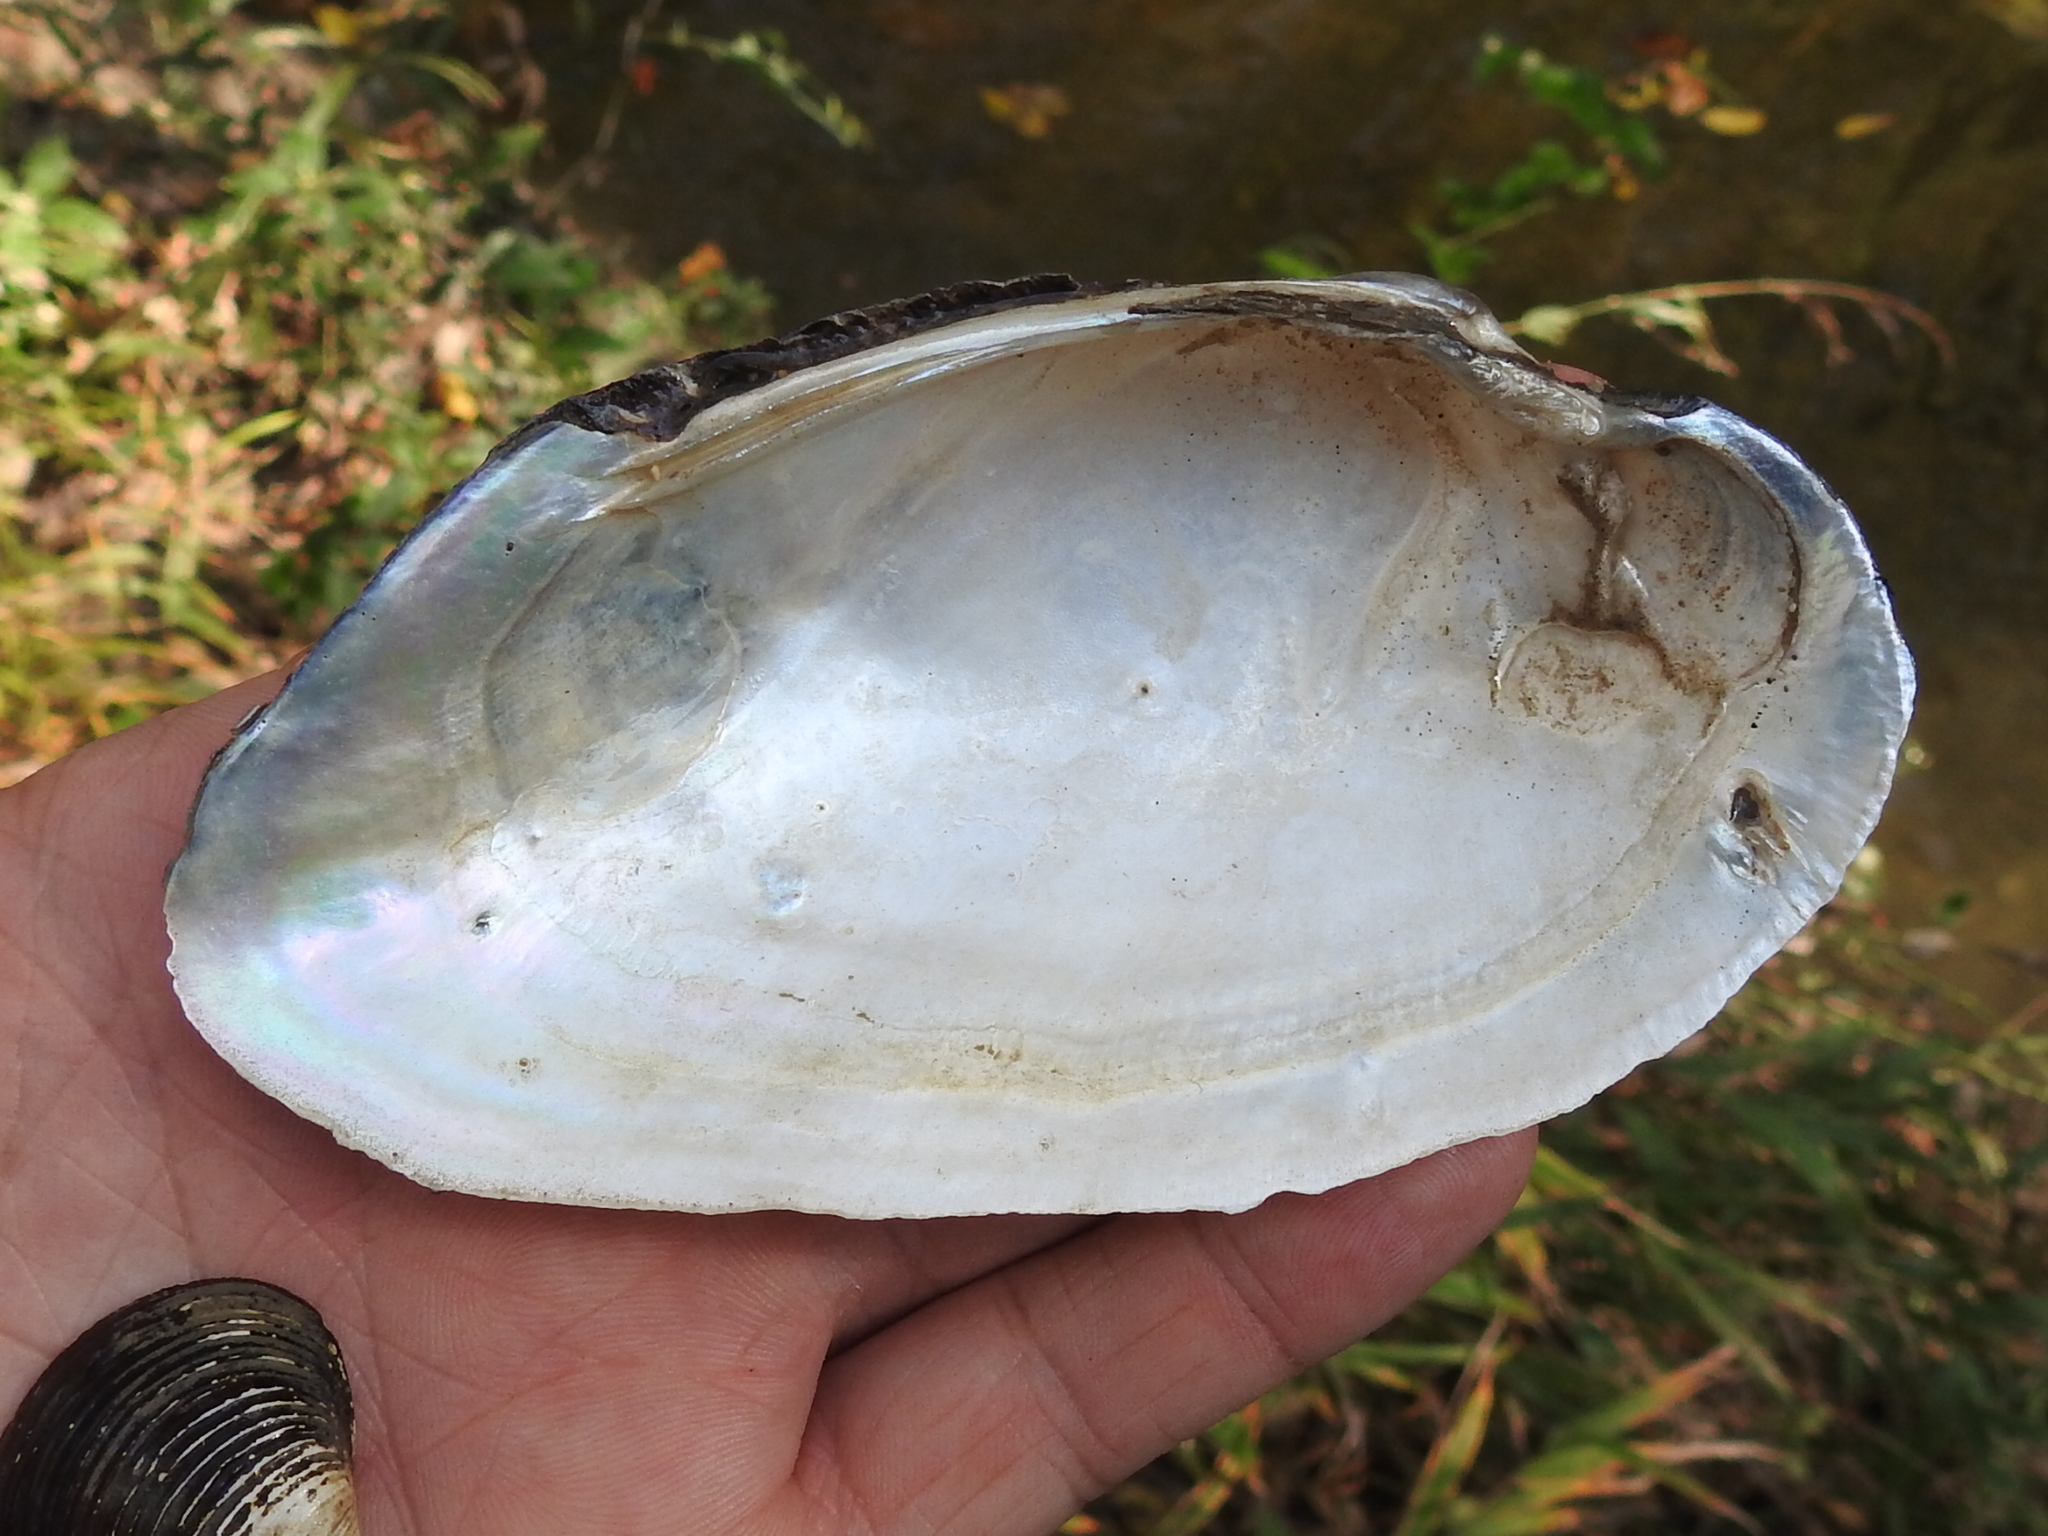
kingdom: Animalia
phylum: Mollusca
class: Bivalvia
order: Unionida
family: Unionidae
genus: Uniomerus
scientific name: Uniomerus declivis
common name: Tapered pondhorn
